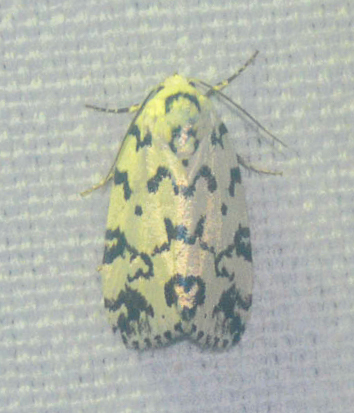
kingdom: Animalia
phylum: Arthropoda
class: Insecta
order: Lepidoptera
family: Noctuidae
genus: Polygrammate
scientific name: Polygrammate hebraeicum
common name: Hebrew moth
